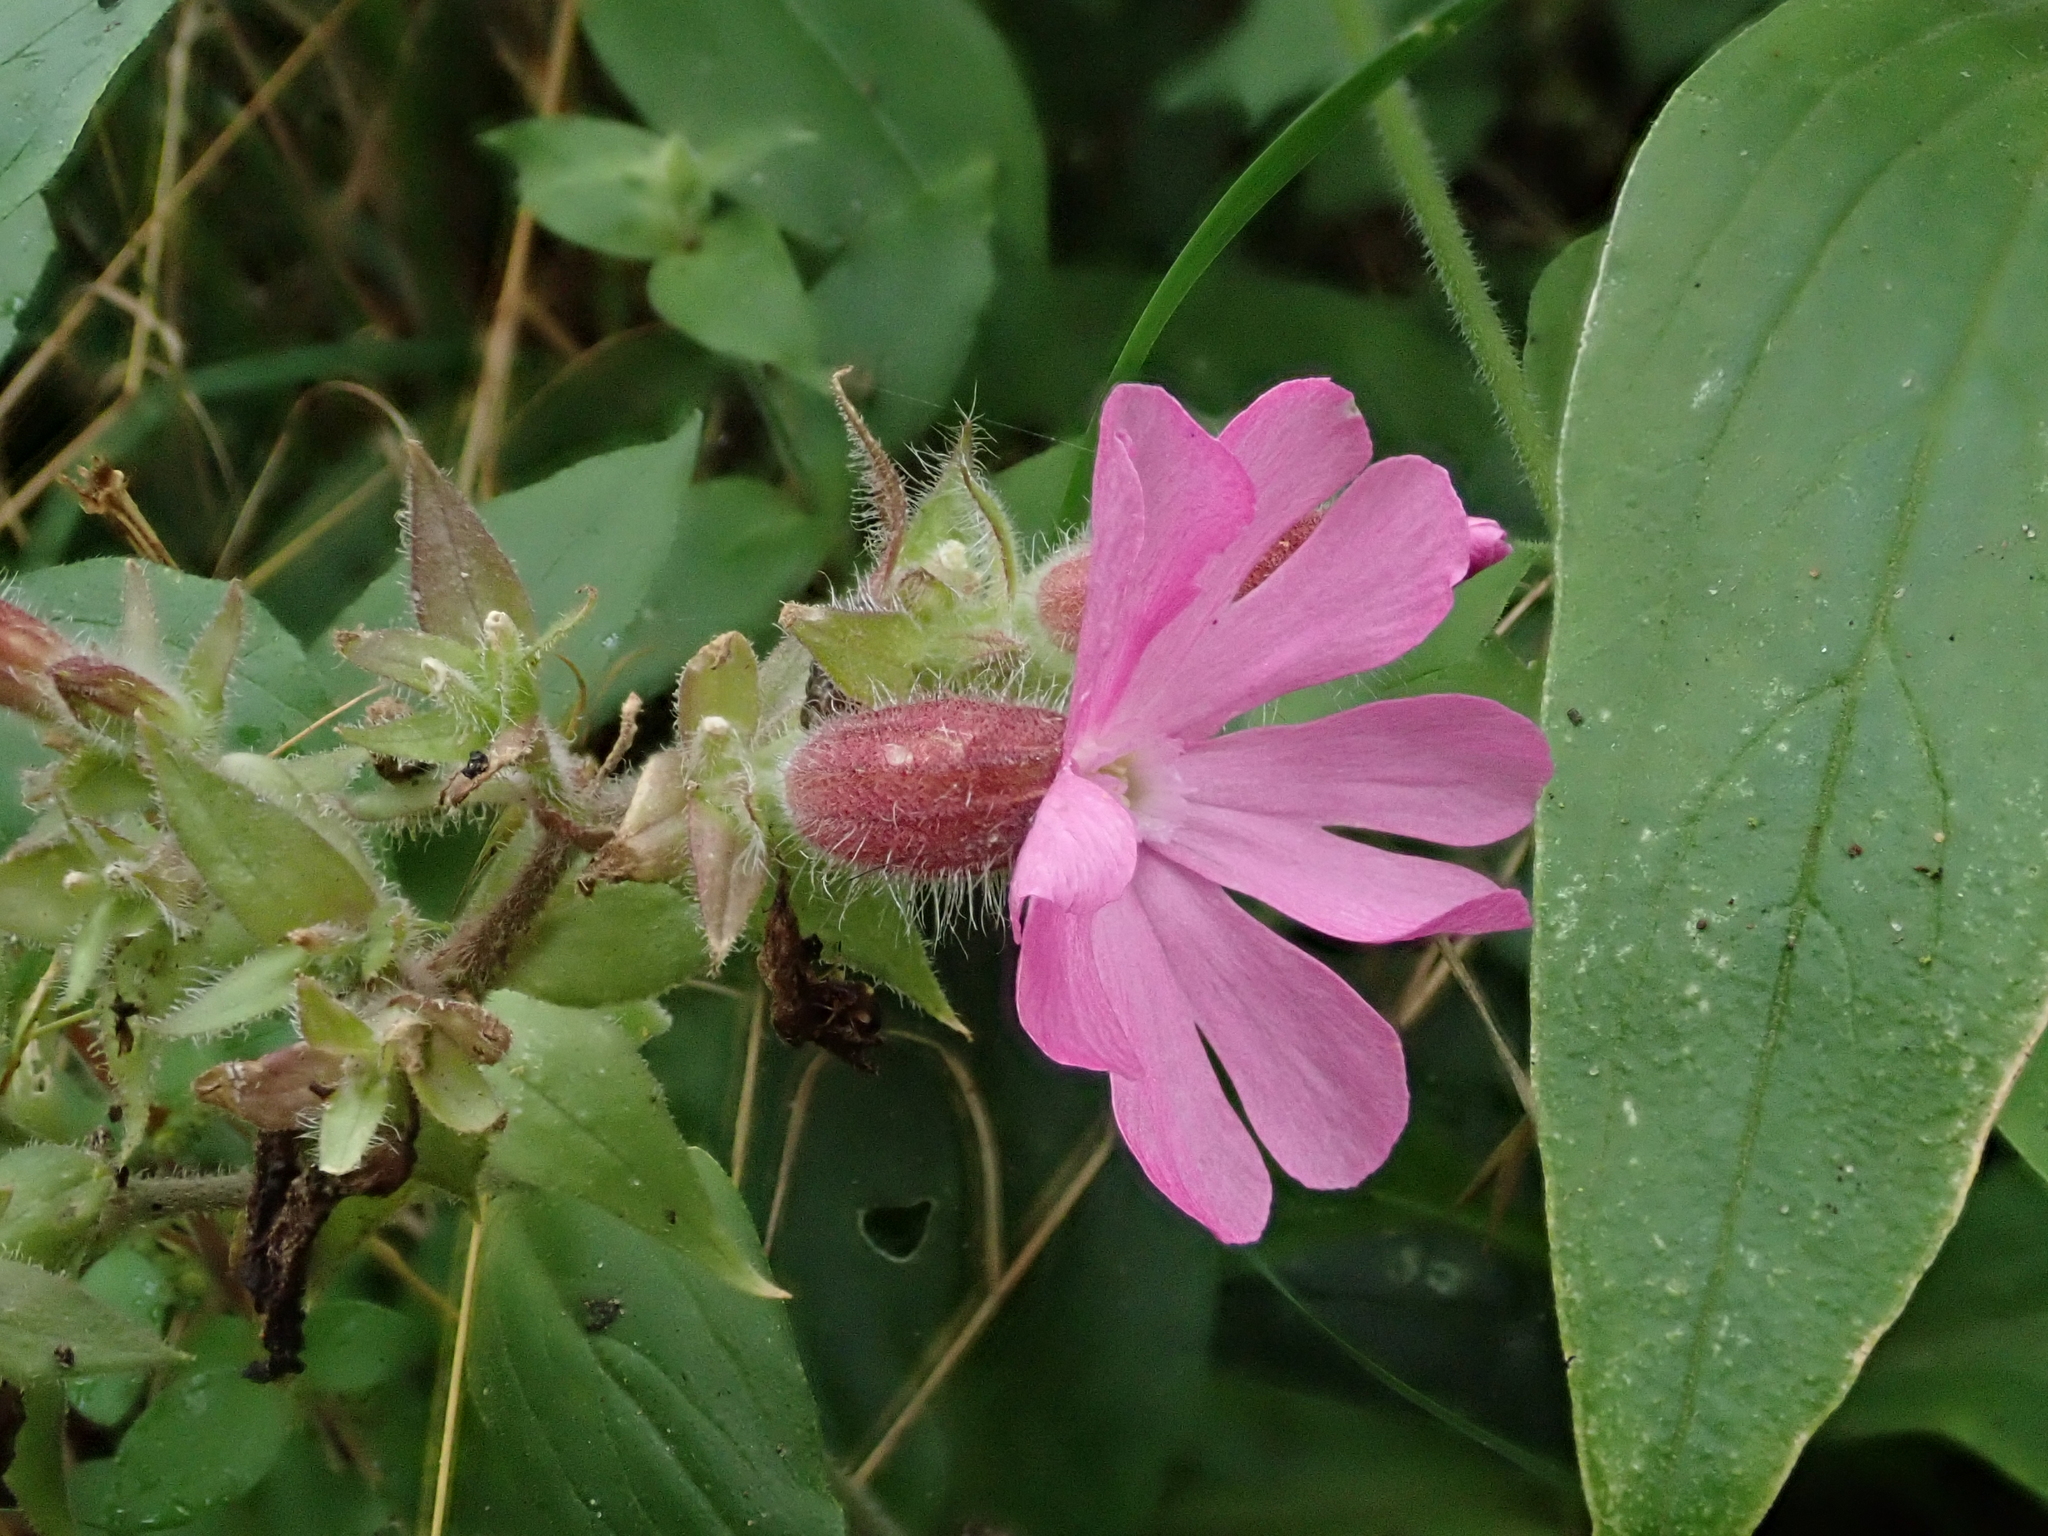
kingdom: Plantae
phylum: Tracheophyta
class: Magnoliopsida
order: Caryophyllales
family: Caryophyllaceae
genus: Silene
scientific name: Silene dioica
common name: Red campion
